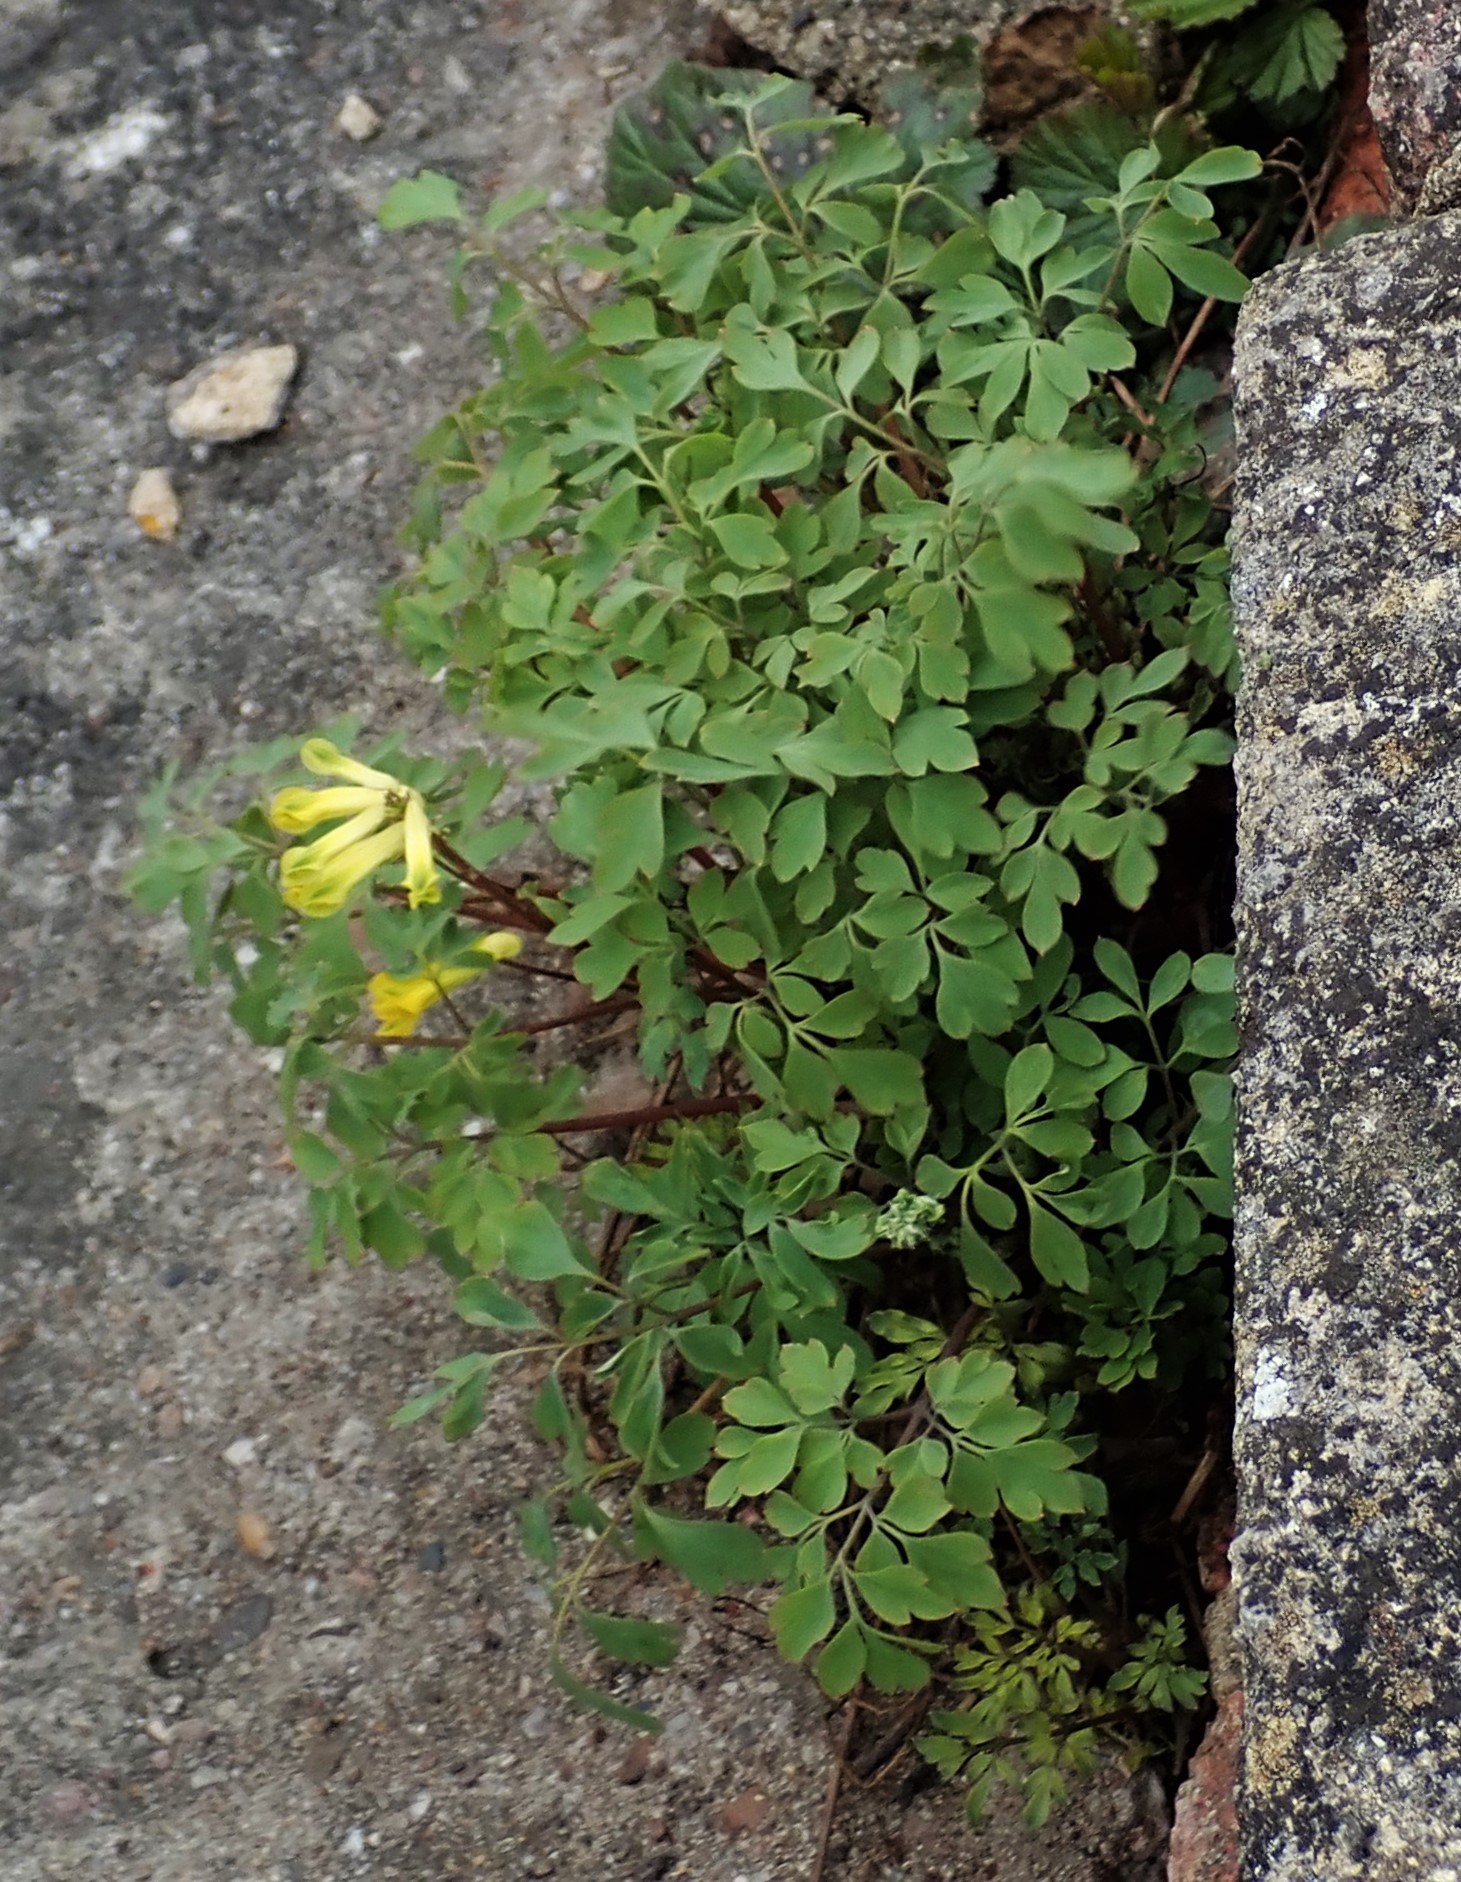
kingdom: Plantae
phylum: Tracheophyta
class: Magnoliopsida
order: Ranunculales
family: Papaveraceae
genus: Pseudofumaria
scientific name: Pseudofumaria lutea
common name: Yellow corydalis
